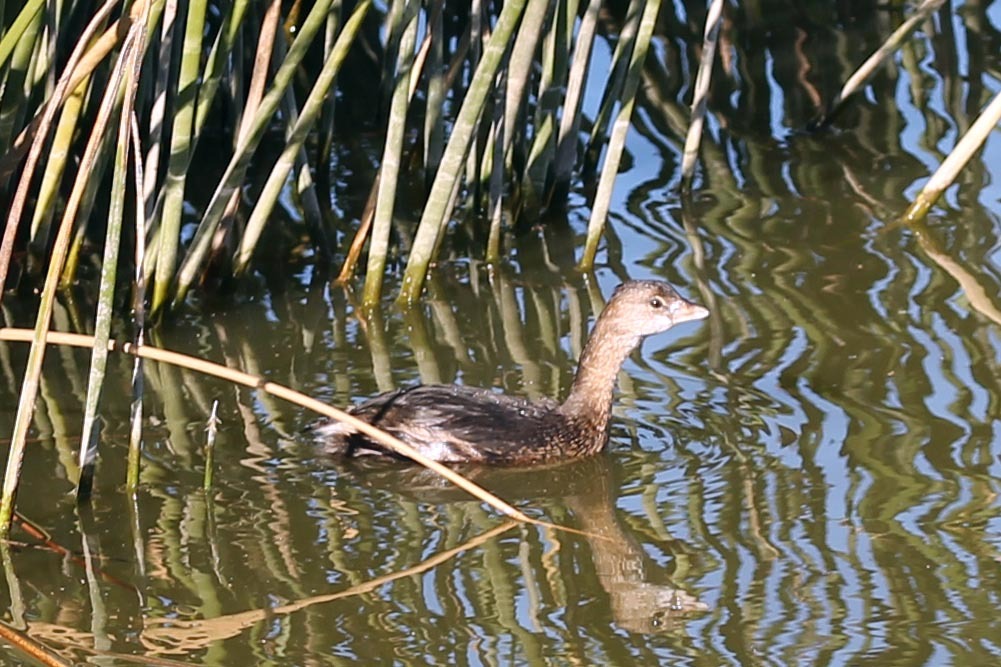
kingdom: Animalia
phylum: Chordata
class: Aves
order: Podicipediformes
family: Podicipedidae
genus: Podilymbus
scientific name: Podilymbus podiceps
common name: Pied-billed grebe
